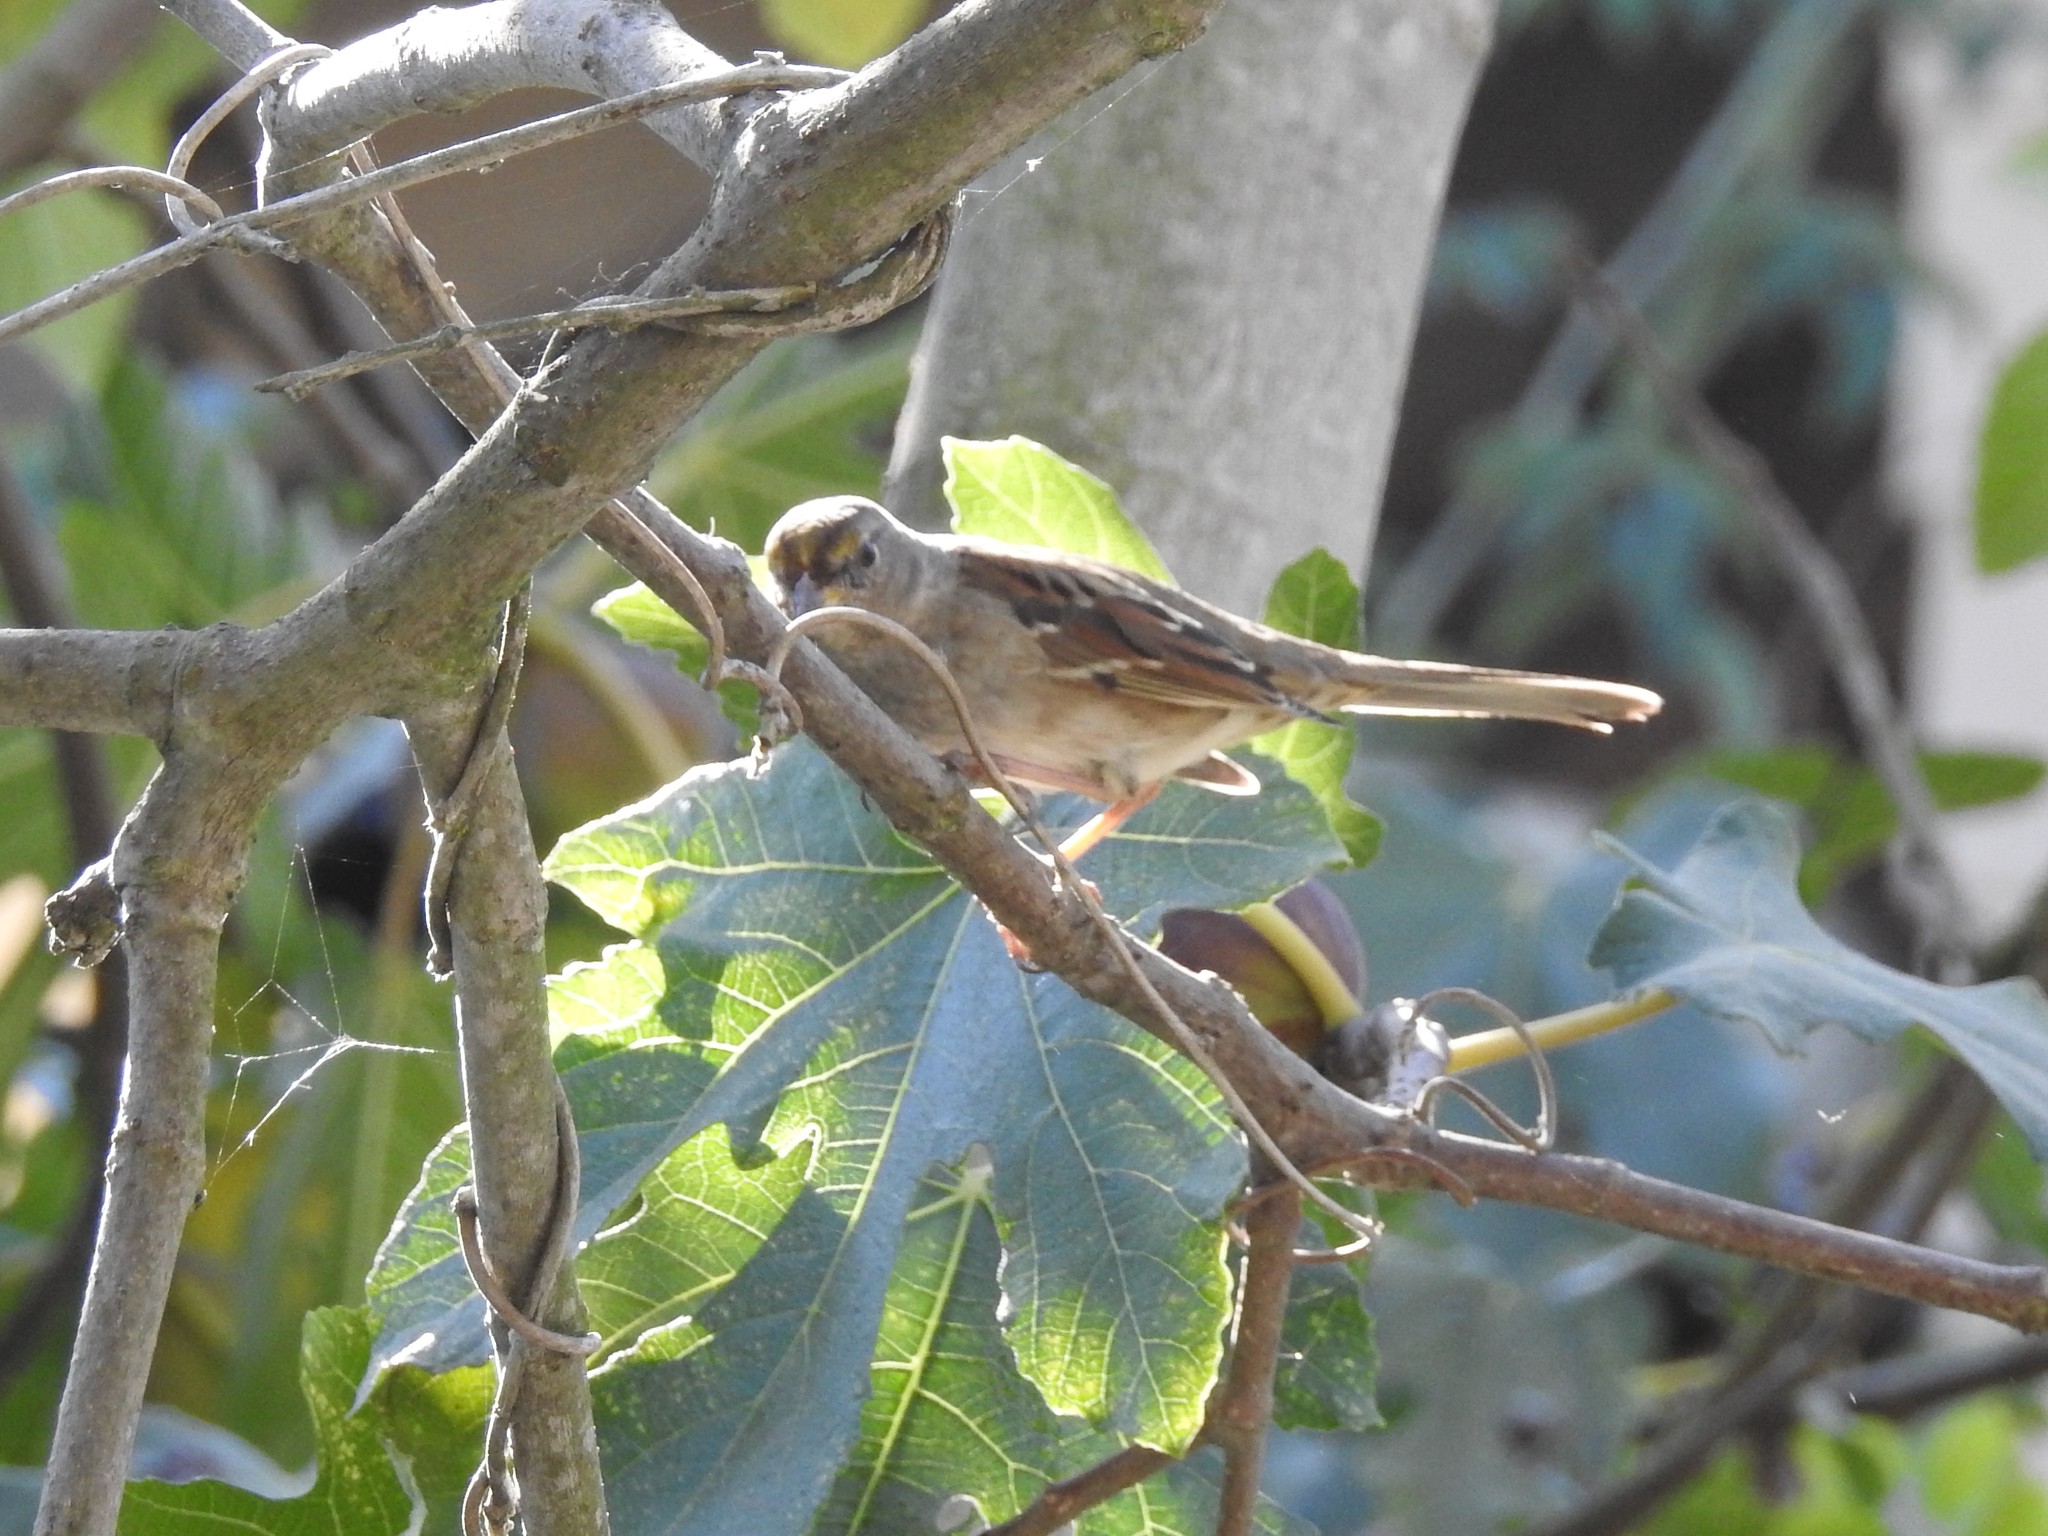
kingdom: Animalia
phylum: Chordata
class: Aves
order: Passeriformes
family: Passerellidae
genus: Zonotrichia
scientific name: Zonotrichia atricapilla
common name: Golden-crowned sparrow
